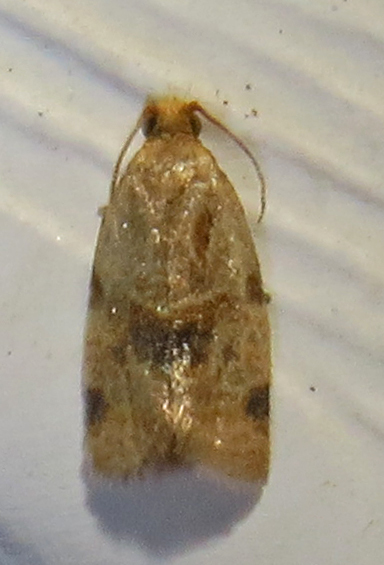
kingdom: Animalia
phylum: Arthropoda
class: Insecta
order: Lepidoptera
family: Tortricidae
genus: Clepsis
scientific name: Clepsis peritana
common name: Garden tortrix
